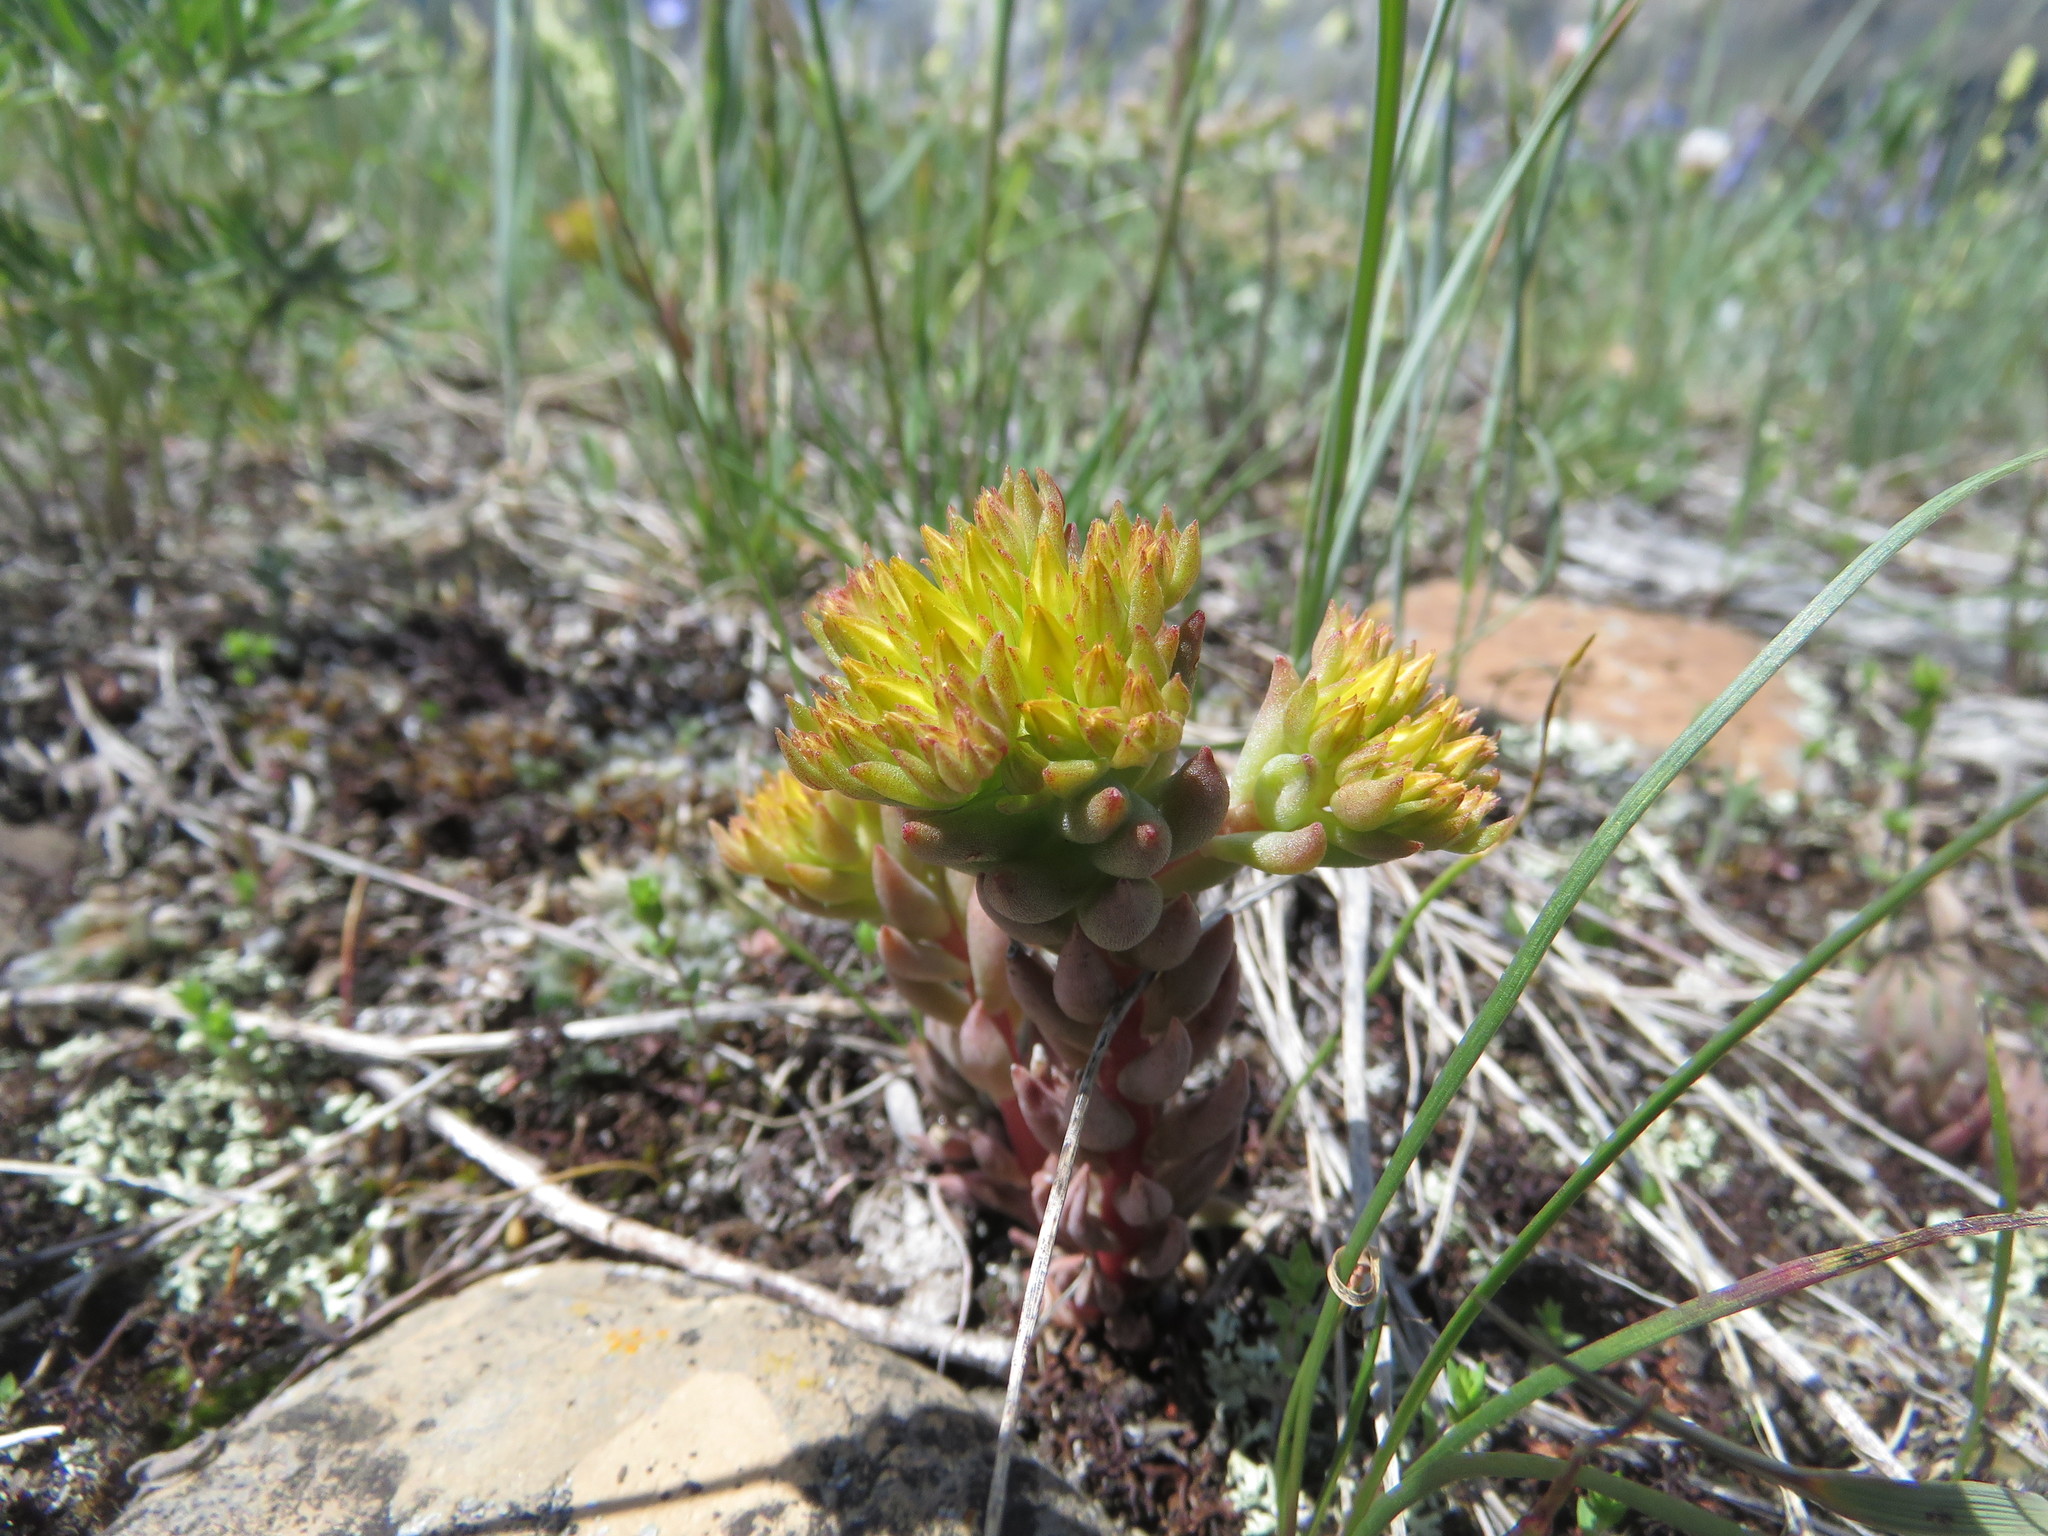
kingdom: Plantae
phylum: Tracheophyta
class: Magnoliopsida
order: Saxifragales
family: Crassulaceae
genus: Sedum
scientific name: Sedum lanceolatum
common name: Common stonecrop
